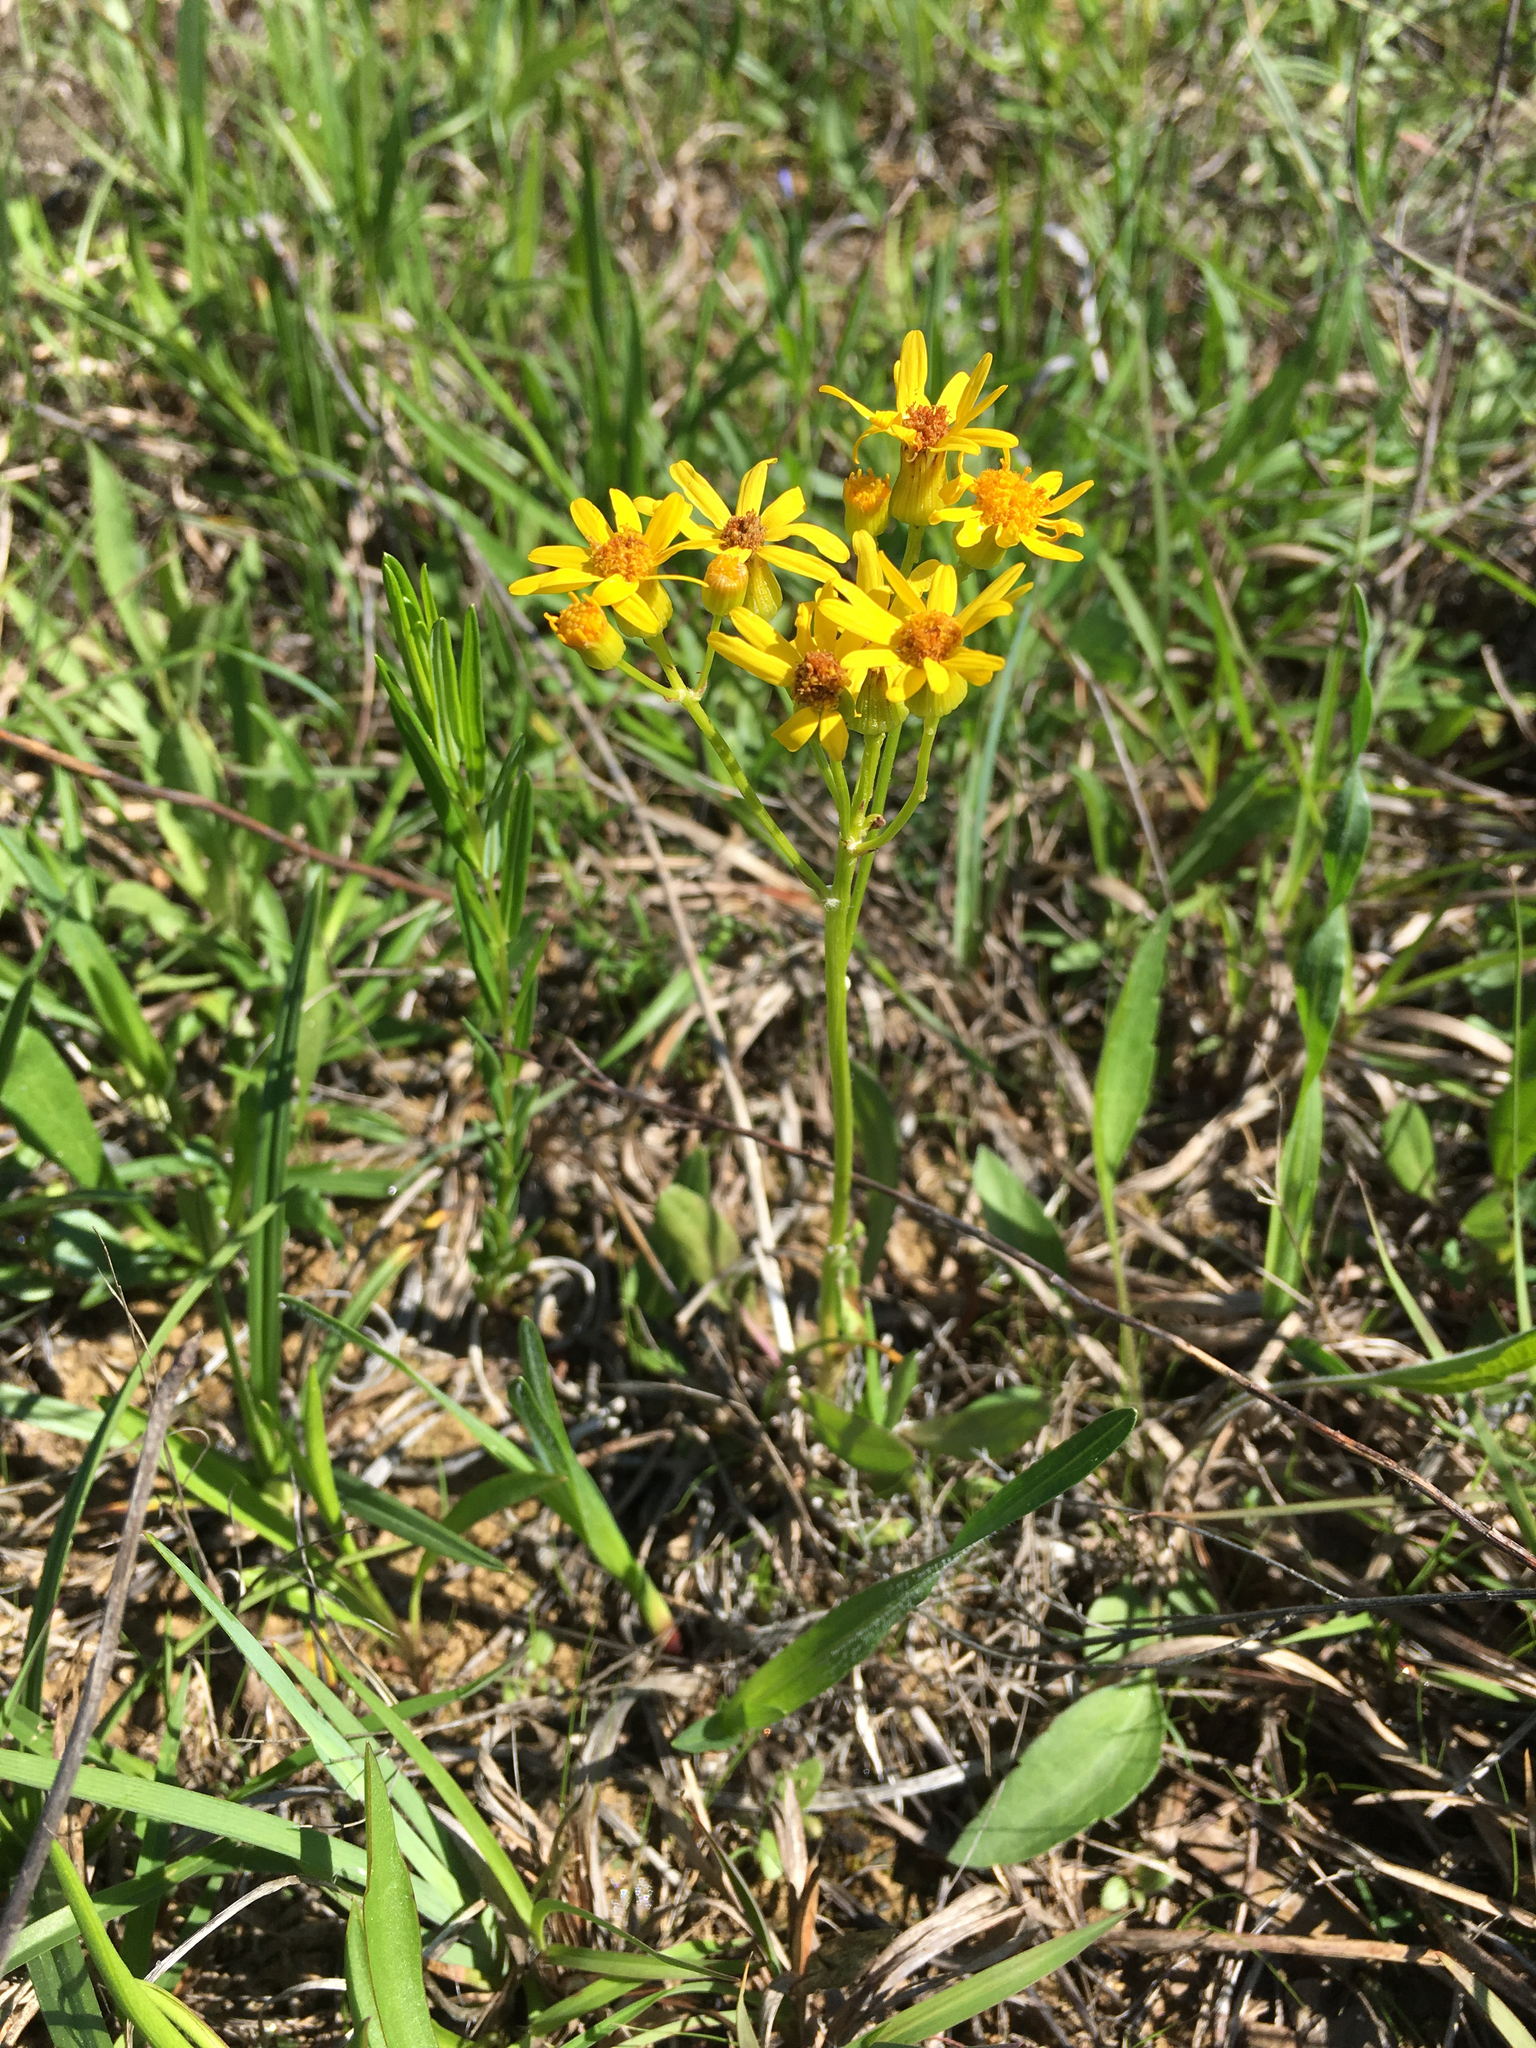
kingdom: Plantae
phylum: Tracheophyta
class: Magnoliopsida
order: Asterales
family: Asteraceae
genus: Packera
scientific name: Packera paupercula
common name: Balsam groundsel
